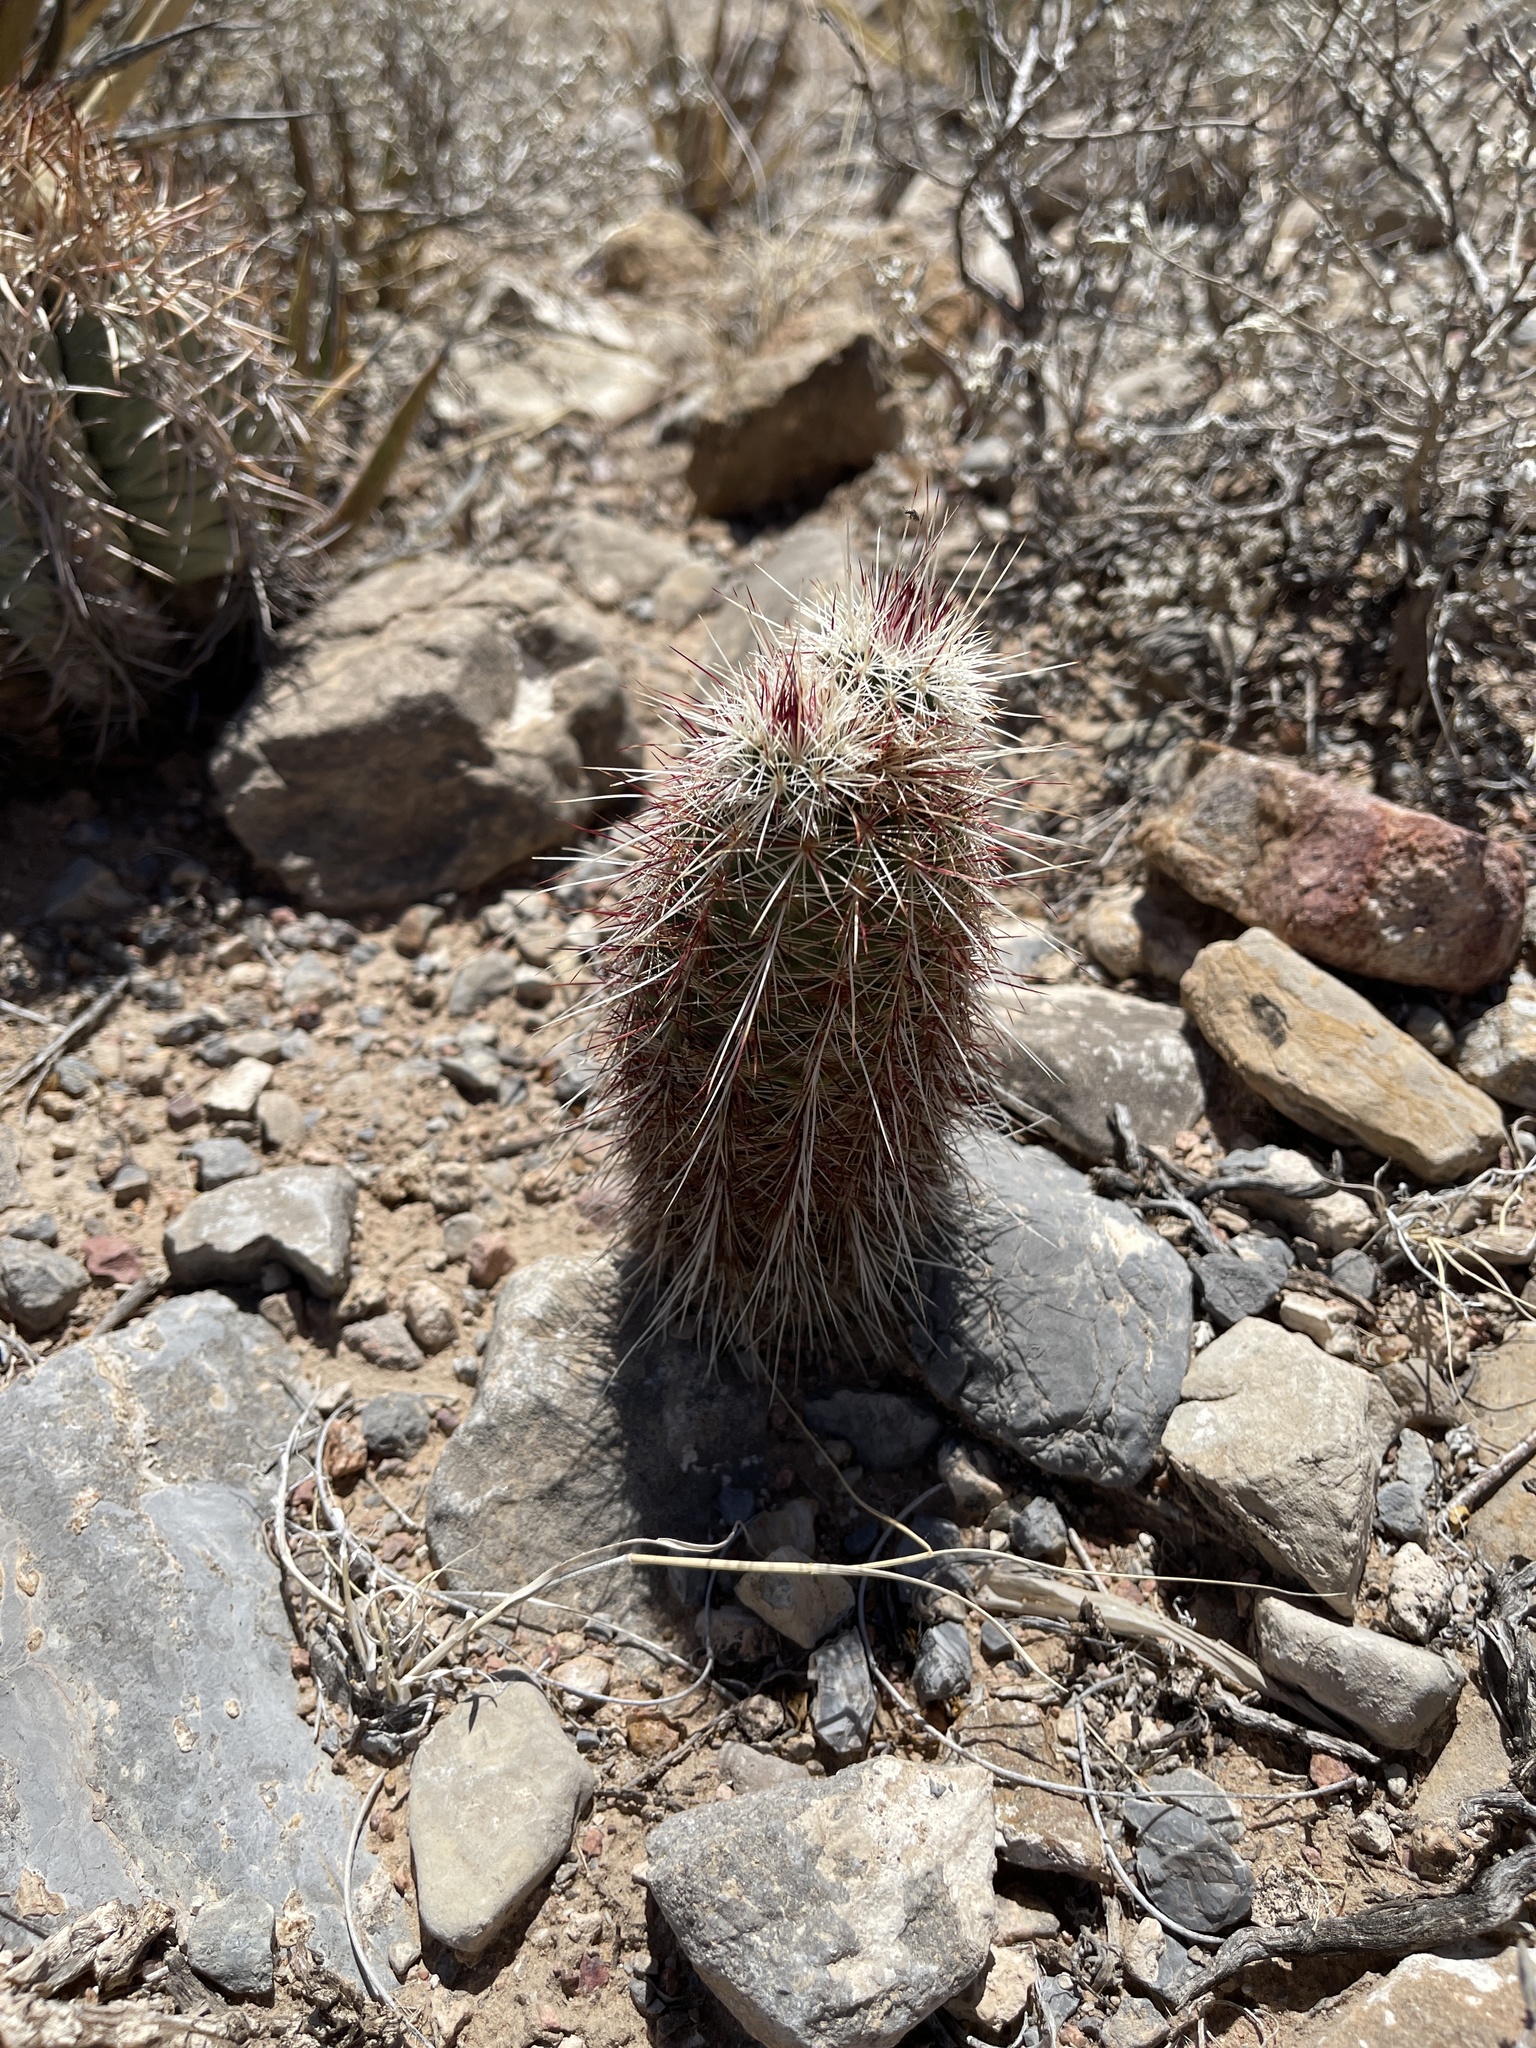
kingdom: Plantae
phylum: Tracheophyta
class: Magnoliopsida
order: Caryophyllales
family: Cactaceae
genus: Echinocereus
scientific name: Echinocereus viridiflorus
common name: Nylon hedgehog cactus
